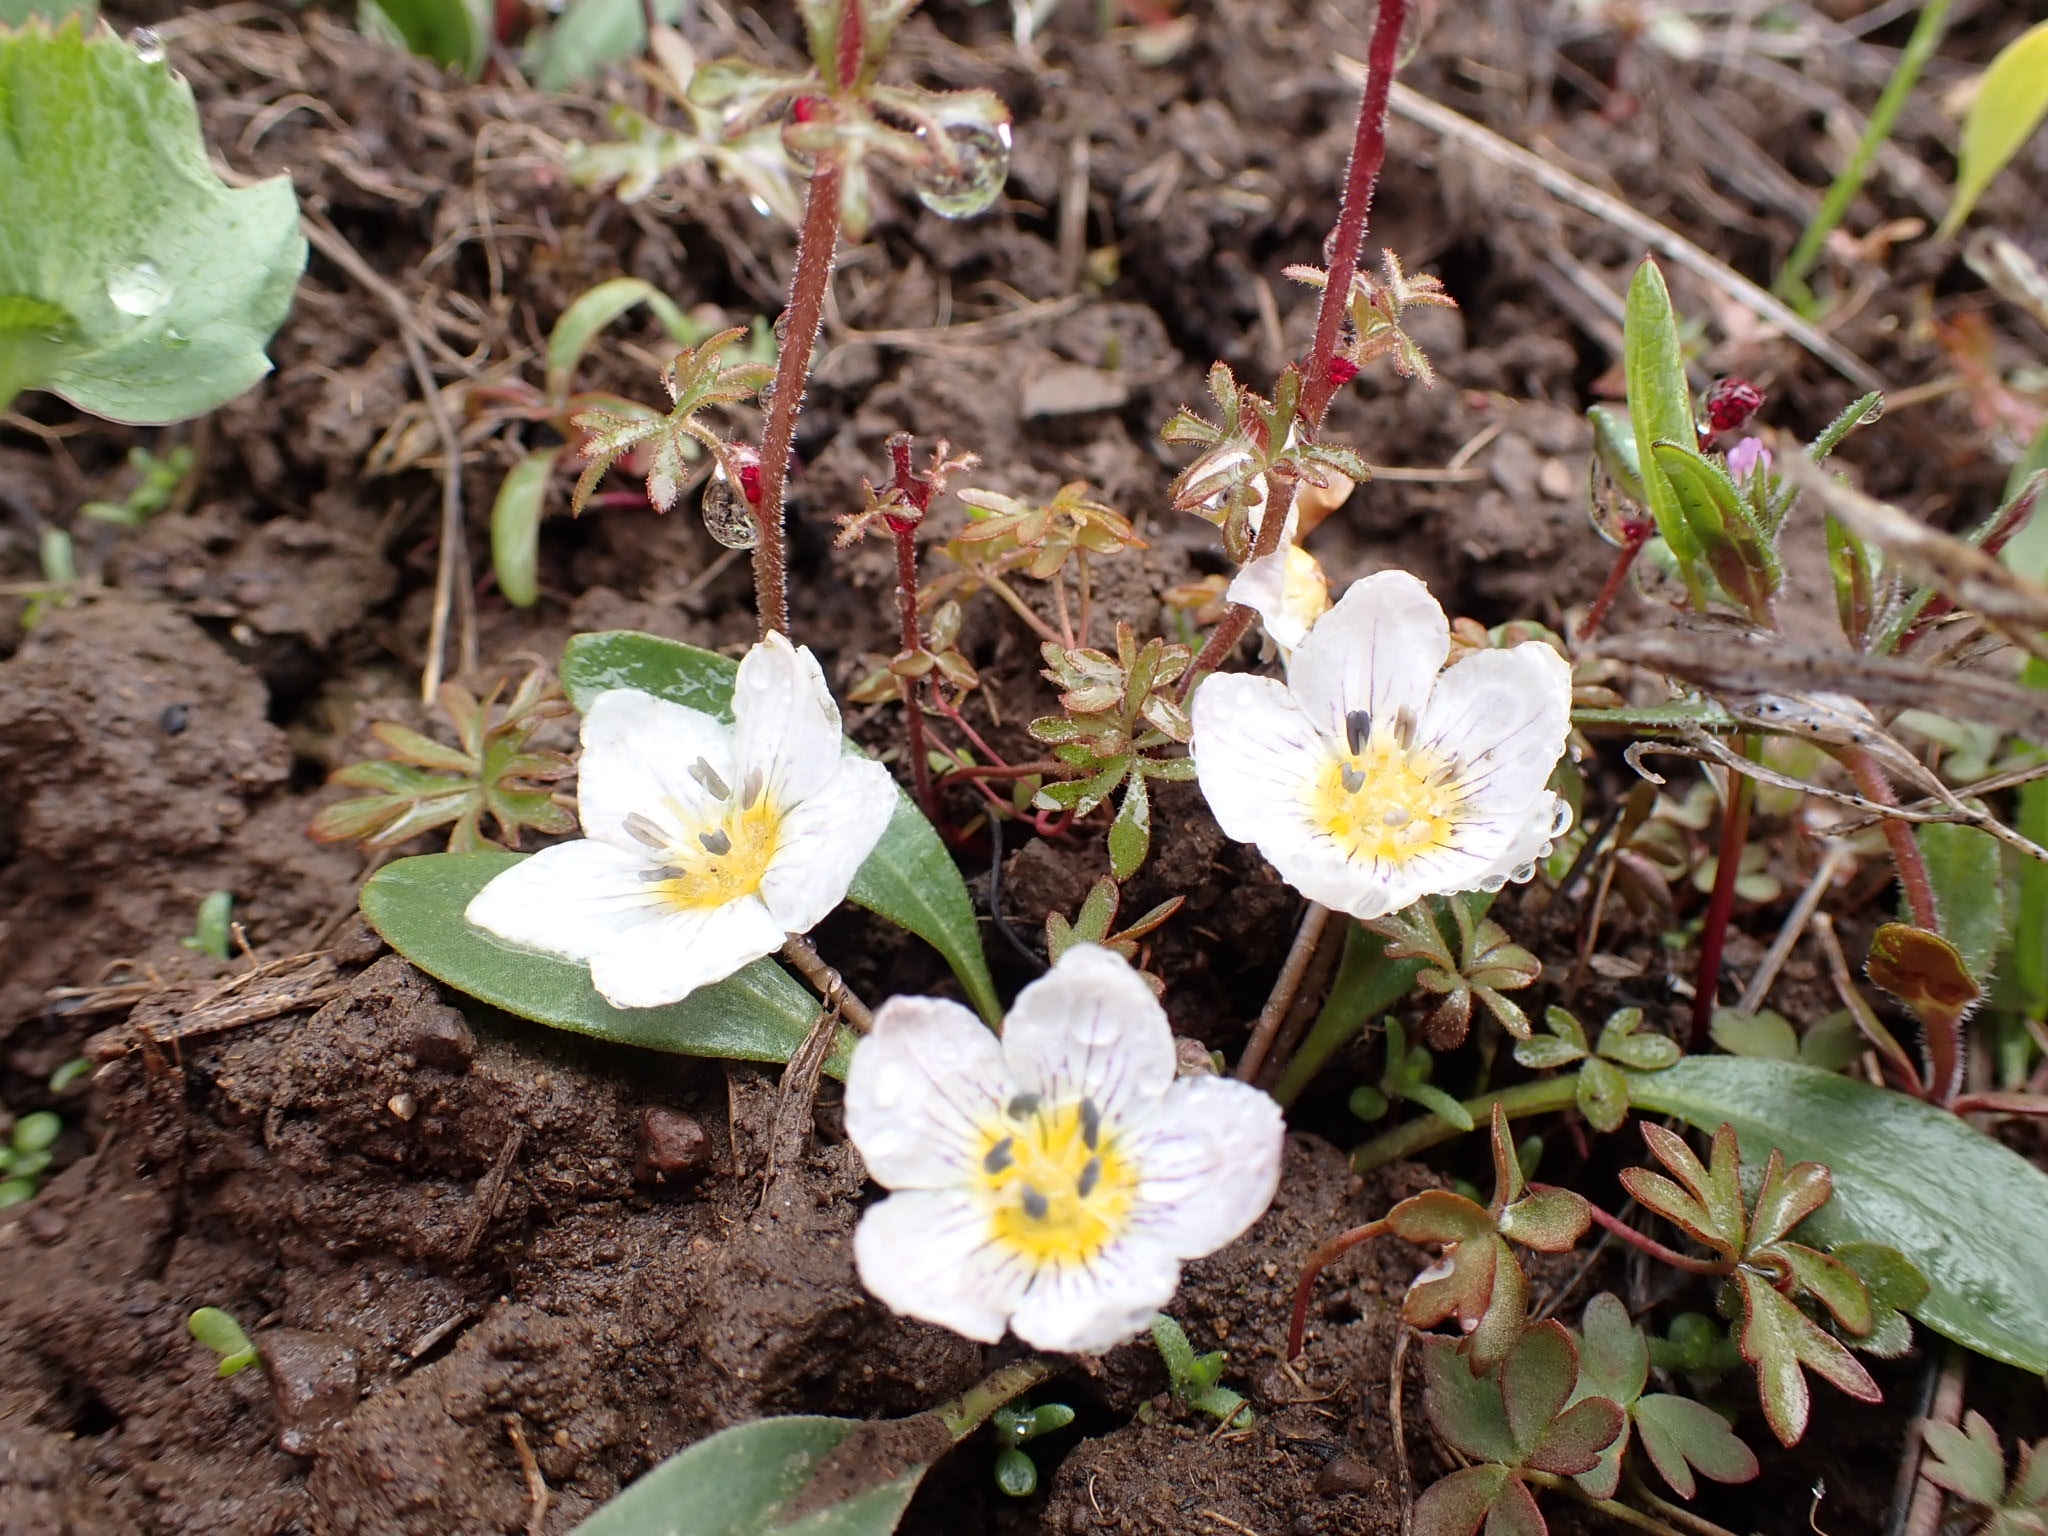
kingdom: Plantae
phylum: Tracheophyta
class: Magnoliopsida
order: Boraginales
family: Hydrophyllaceae
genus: Hesperochiron
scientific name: Hesperochiron pumilus
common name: Dwarf hesperochiron
